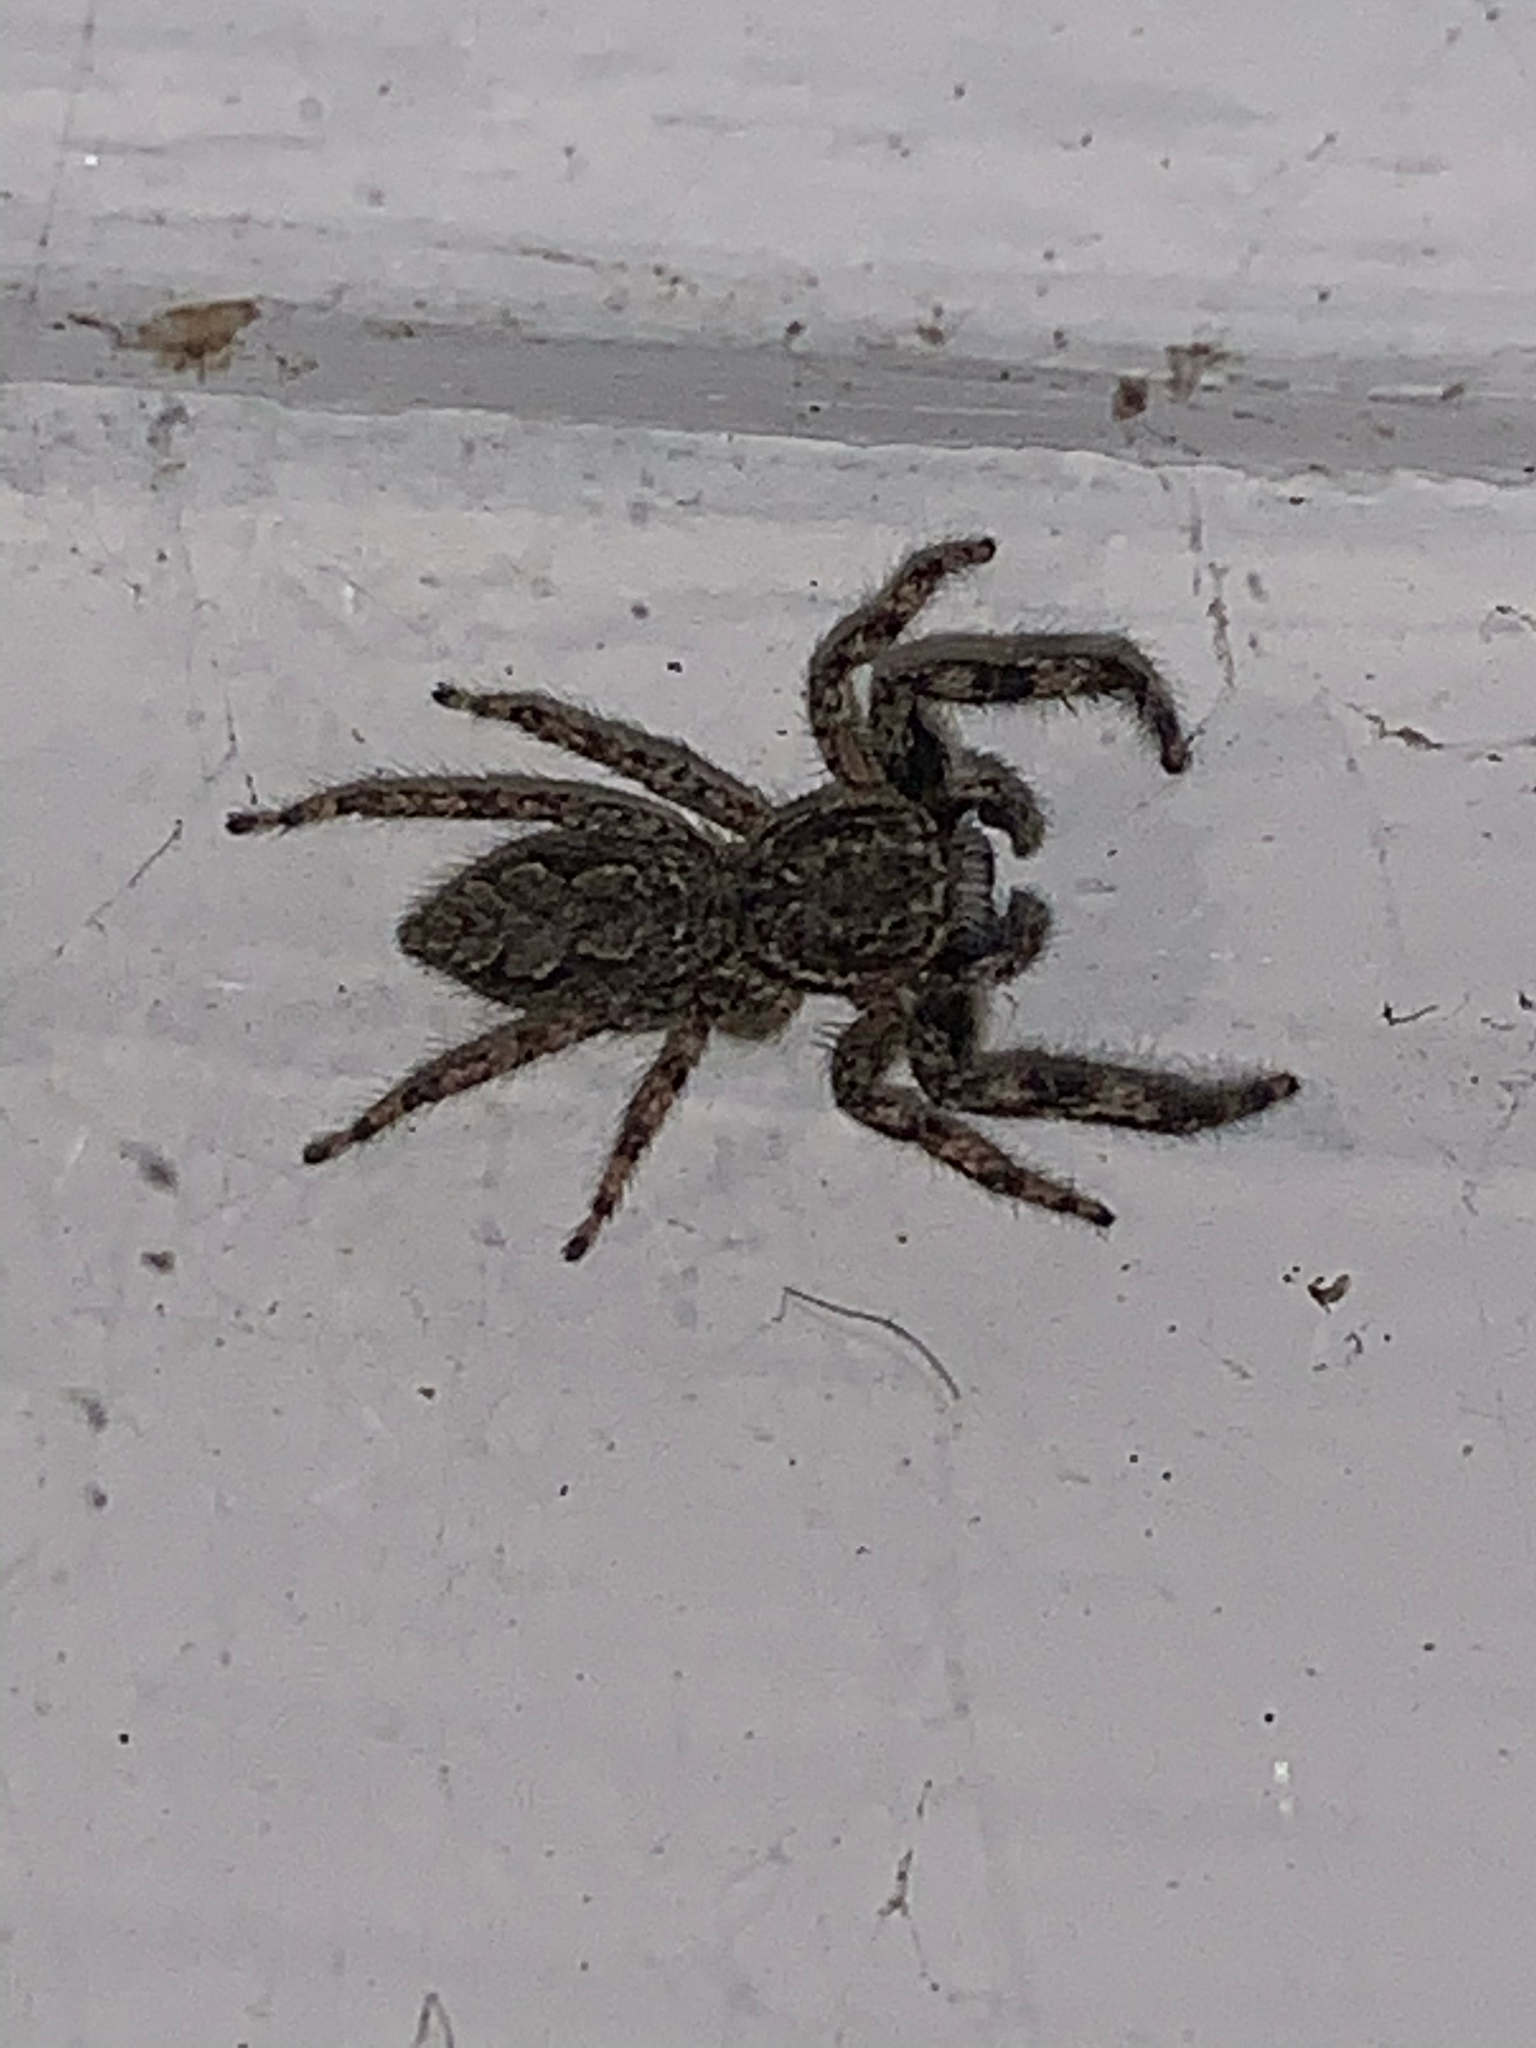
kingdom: Animalia
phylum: Arthropoda
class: Arachnida
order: Araneae
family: Salticidae
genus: Platycryptus
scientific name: Platycryptus undatus
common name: Tan jumping spider
